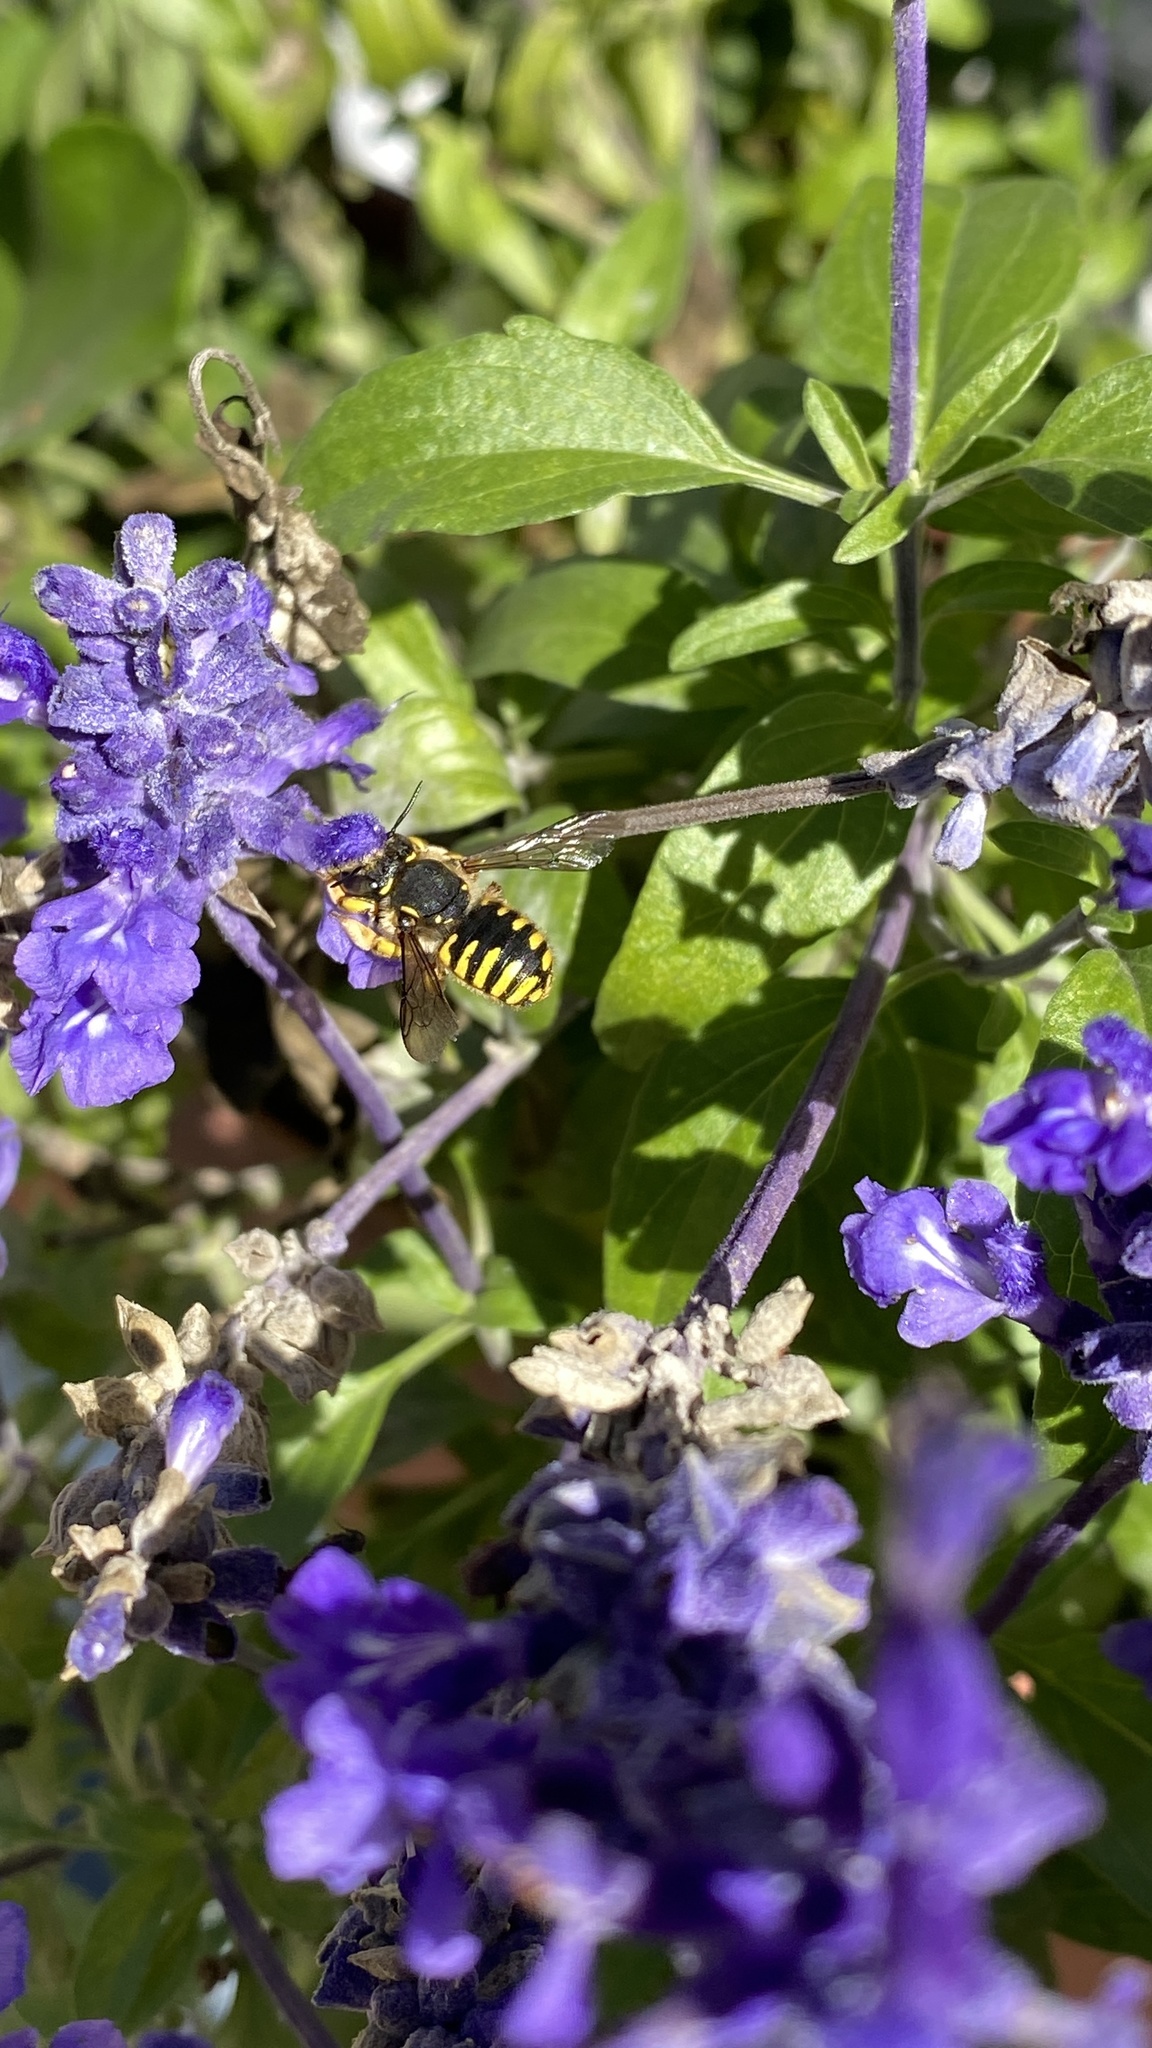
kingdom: Animalia
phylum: Arthropoda
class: Insecta
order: Hymenoptera
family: Megachilidae
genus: Anthidium
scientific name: Anthidium manicatum
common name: Wool carder bee
